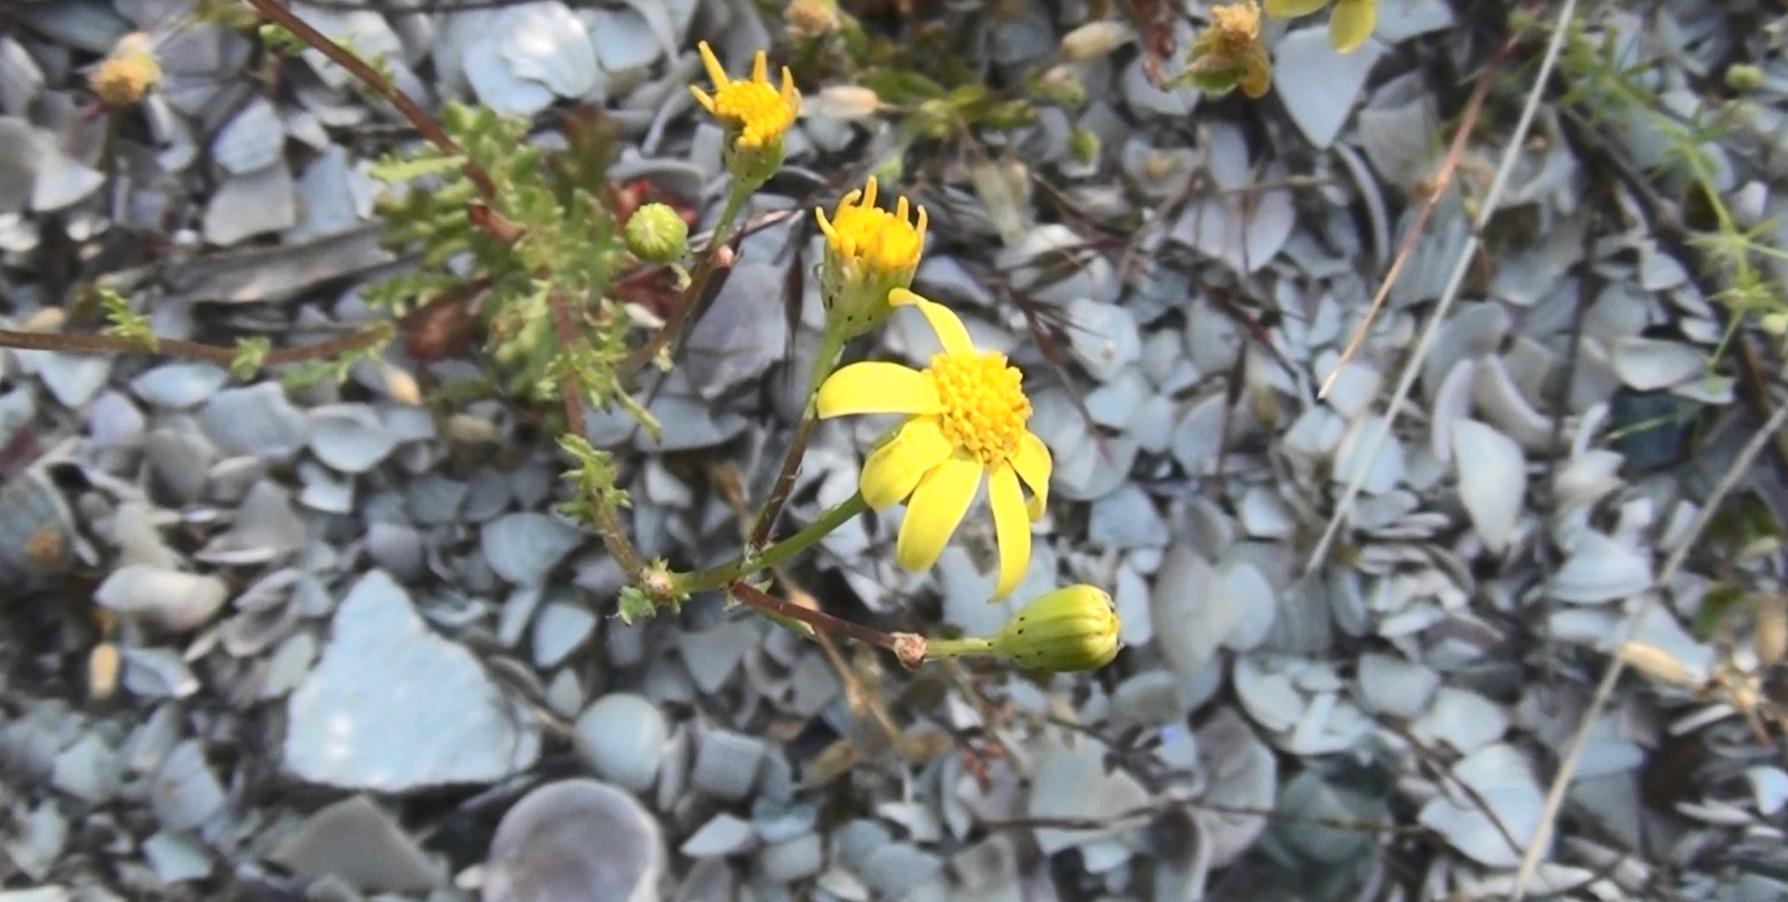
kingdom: Plantae
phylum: Tracheophyta
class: Magnoliopsida
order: Asterales
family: Asteraceae
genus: Senecio
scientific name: Senecio vernalis
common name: Eastern groundsel
